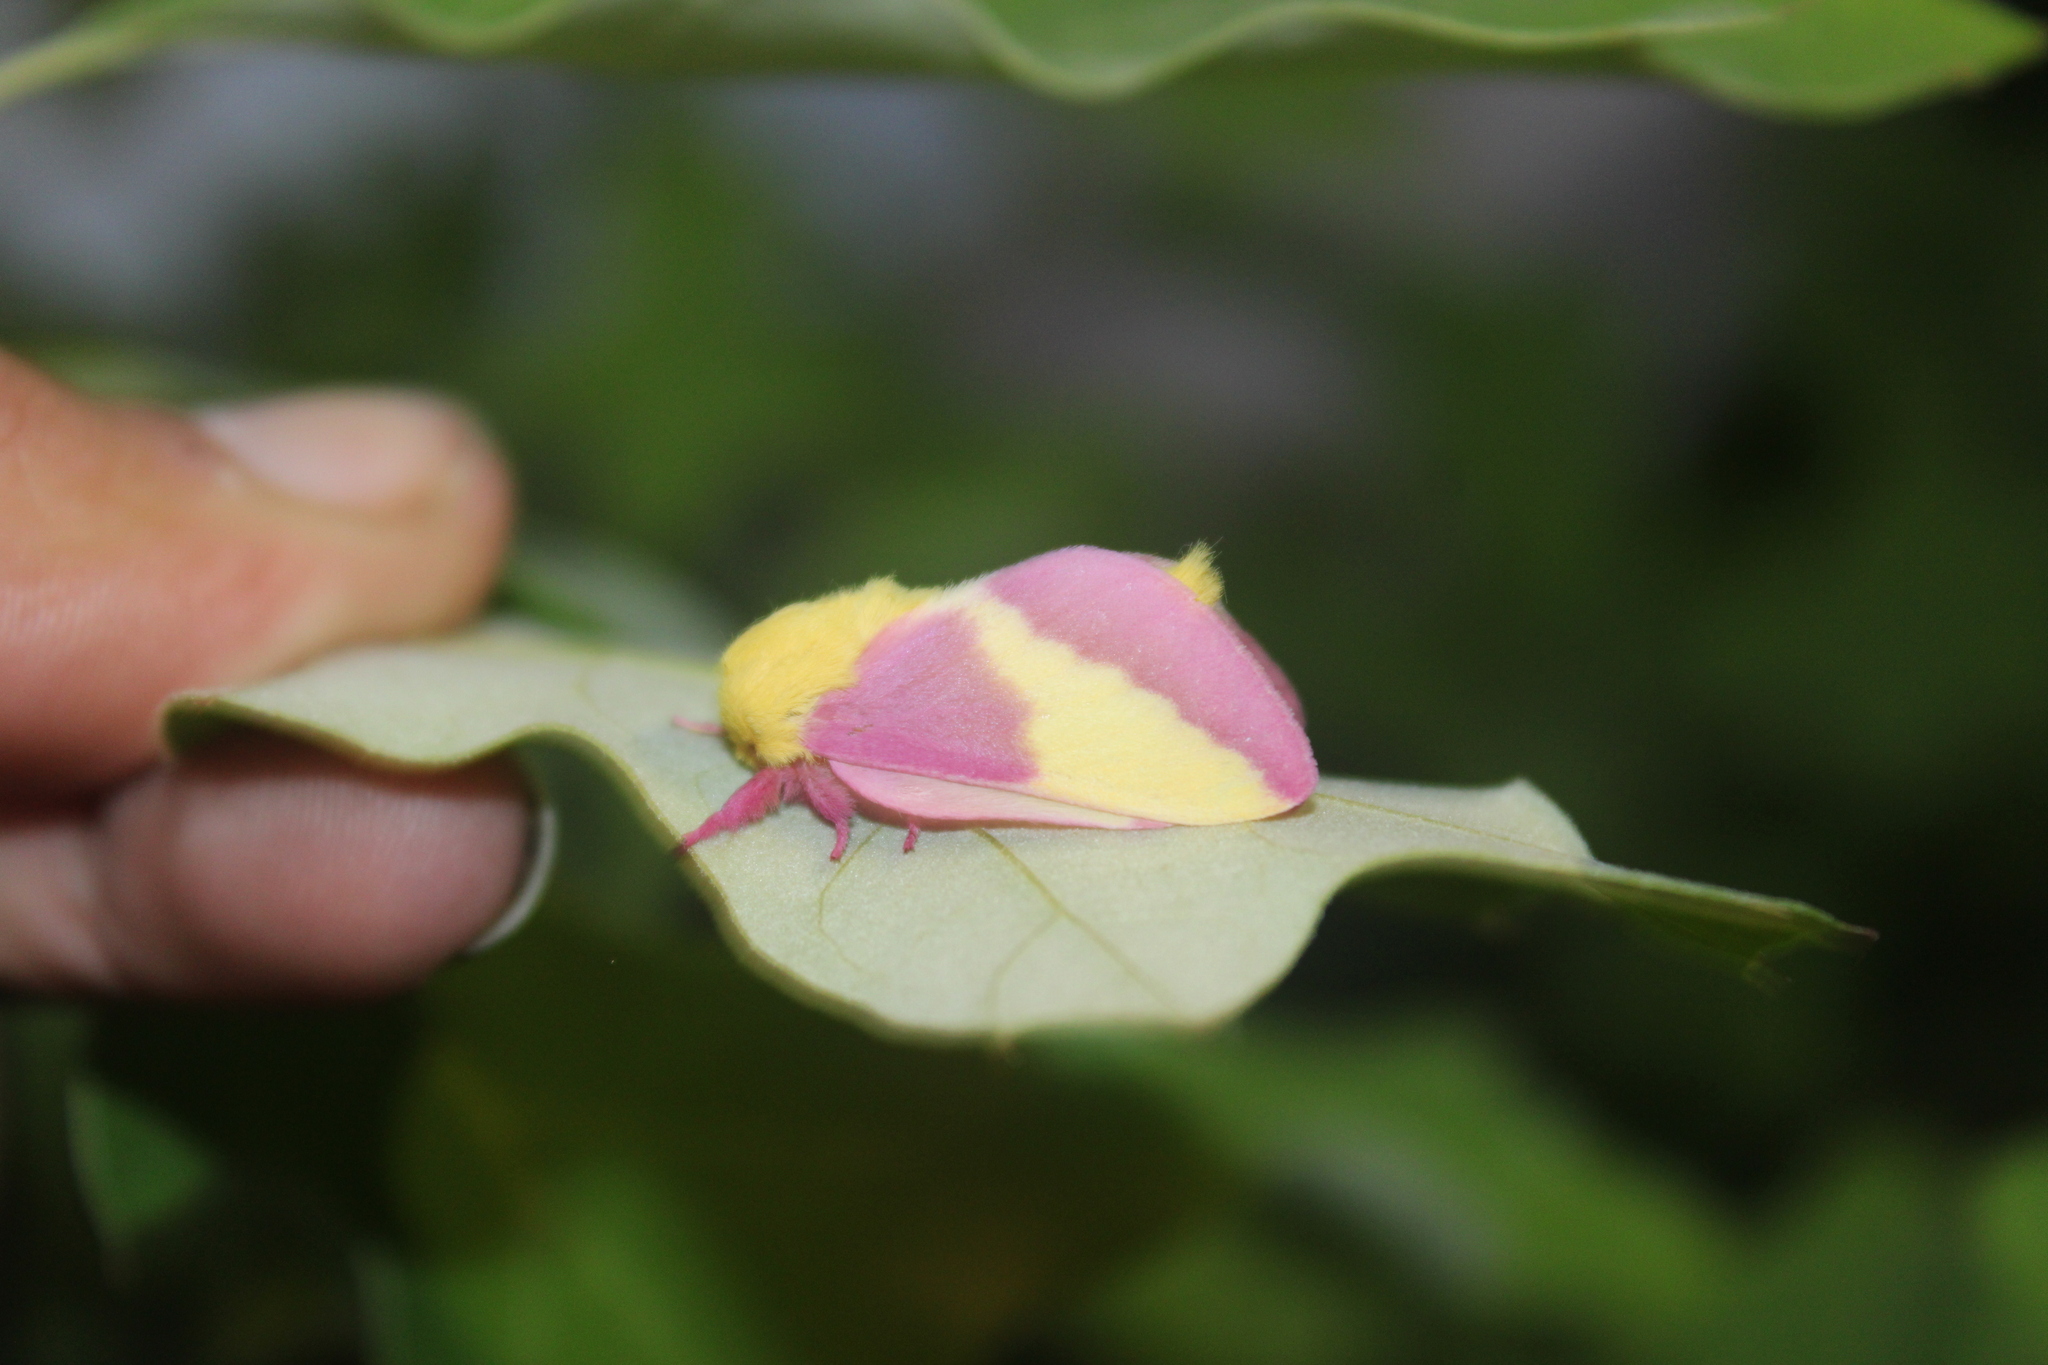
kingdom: Animalia
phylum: Arthropoda
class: Insecta
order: Lepidoptera
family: Saturniidae
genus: Dryocampa
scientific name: Dryocampa rubicunda
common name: Rosy maple moth
